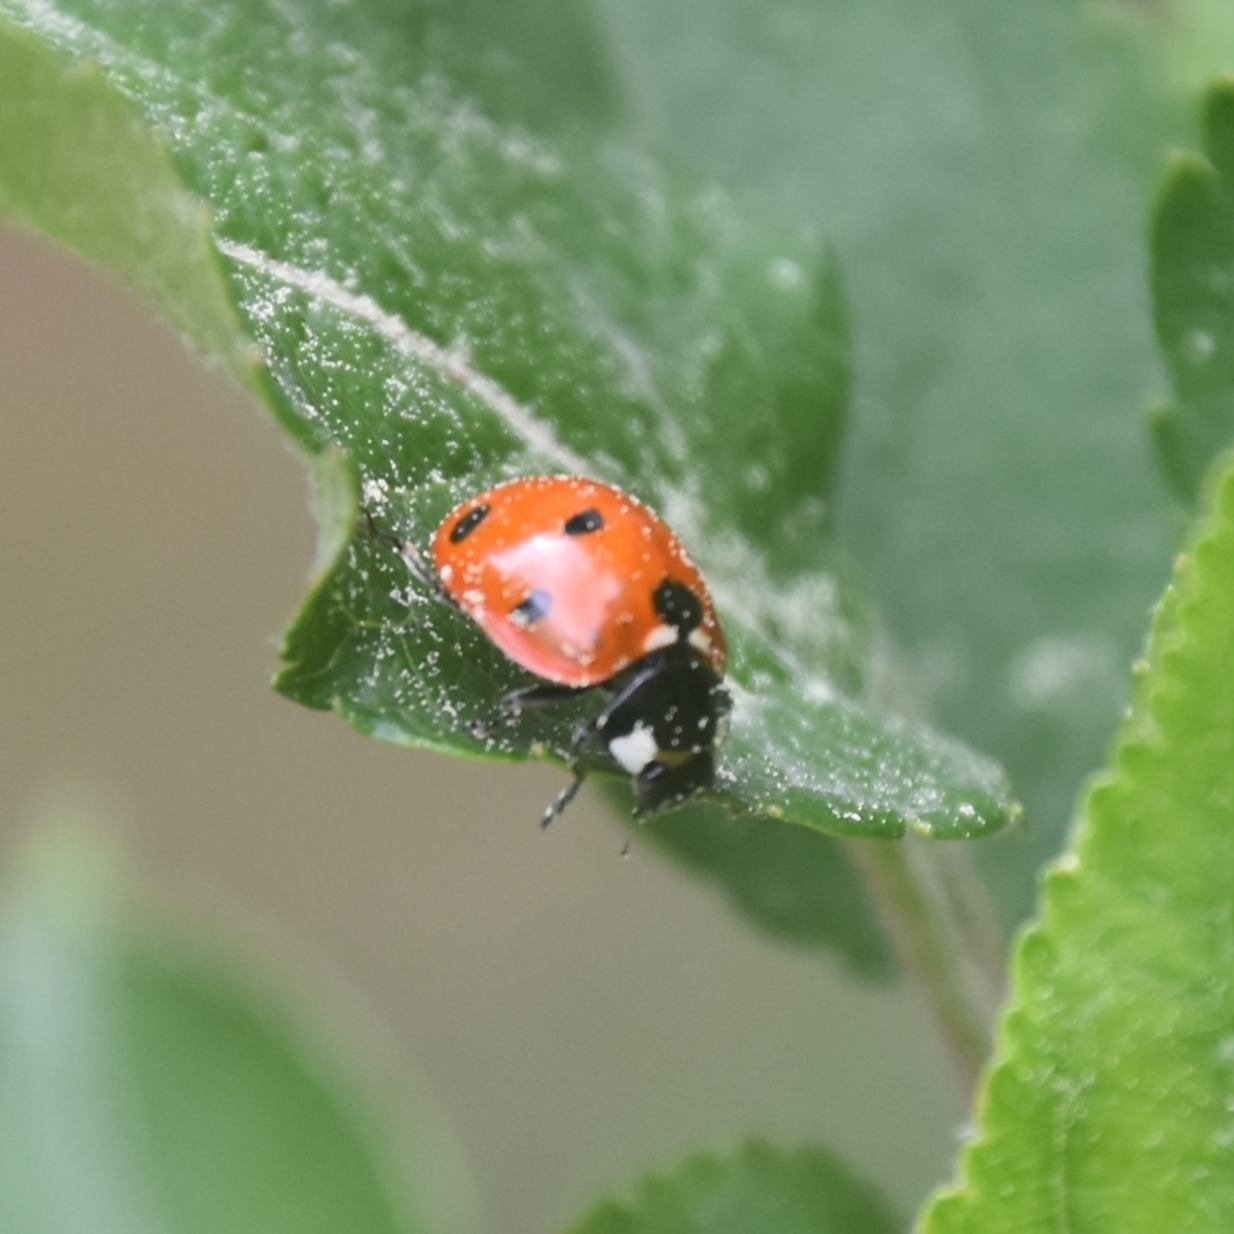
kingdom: Animalia
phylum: Arthropoda
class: Insecta
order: Coleoptera
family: Coccinellidae
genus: Coccinella
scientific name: Coccinella septempunctata
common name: Sevenspotted lady beetle
